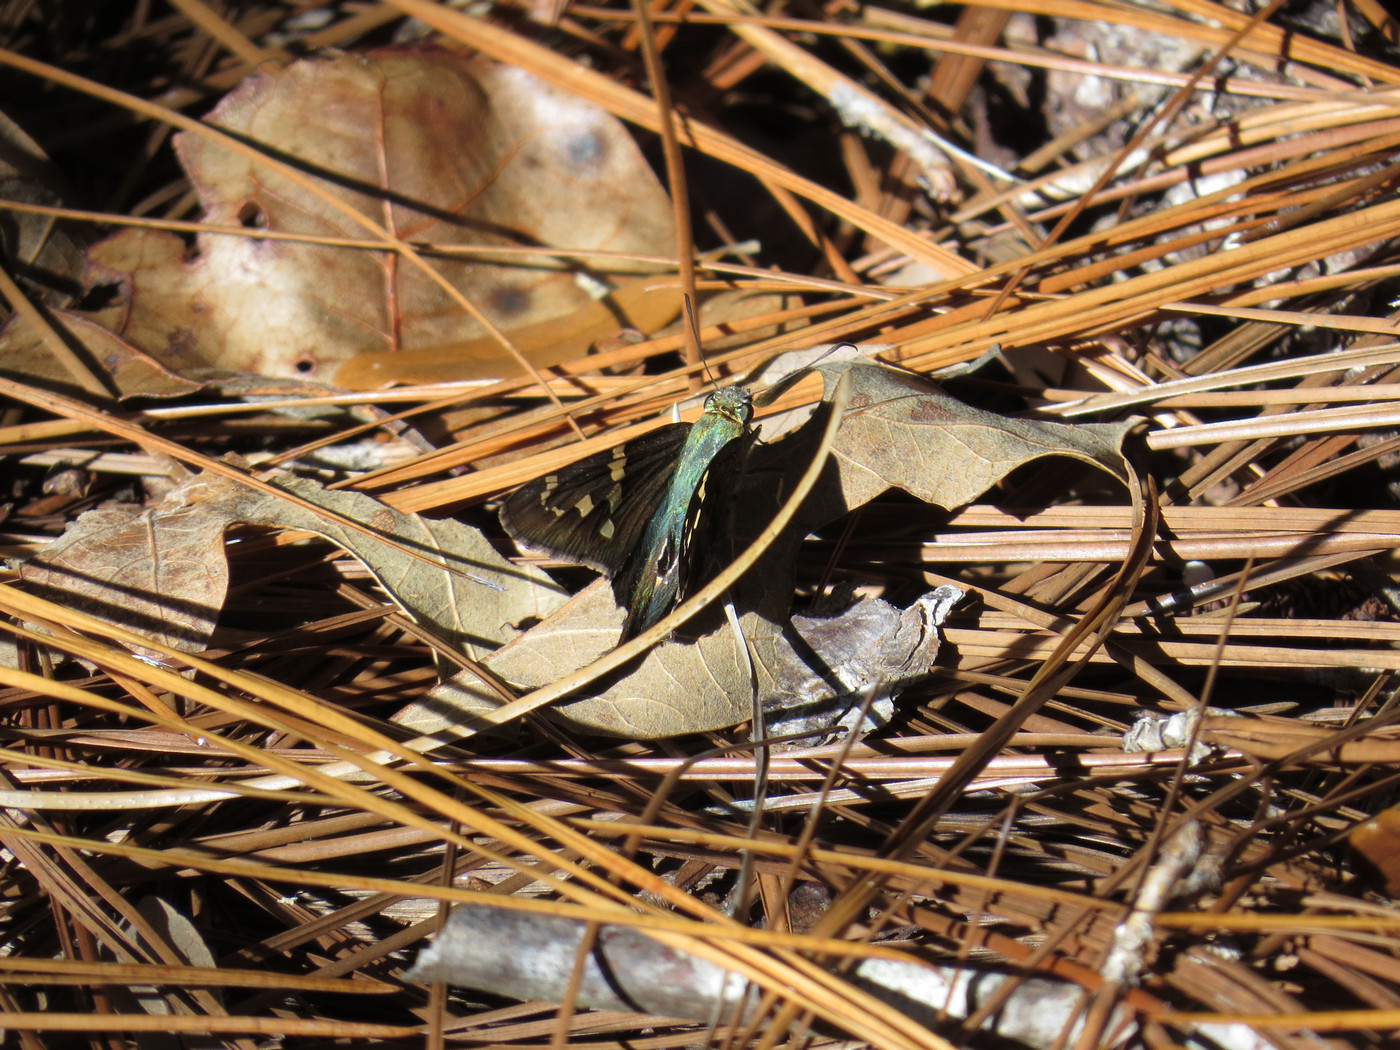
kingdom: Animalia
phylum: Arthropoda
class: Insecta
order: Lepidoptera
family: Hesperiidae
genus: Urbanus
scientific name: Urbanus proteus
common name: Long-tailed skipper
